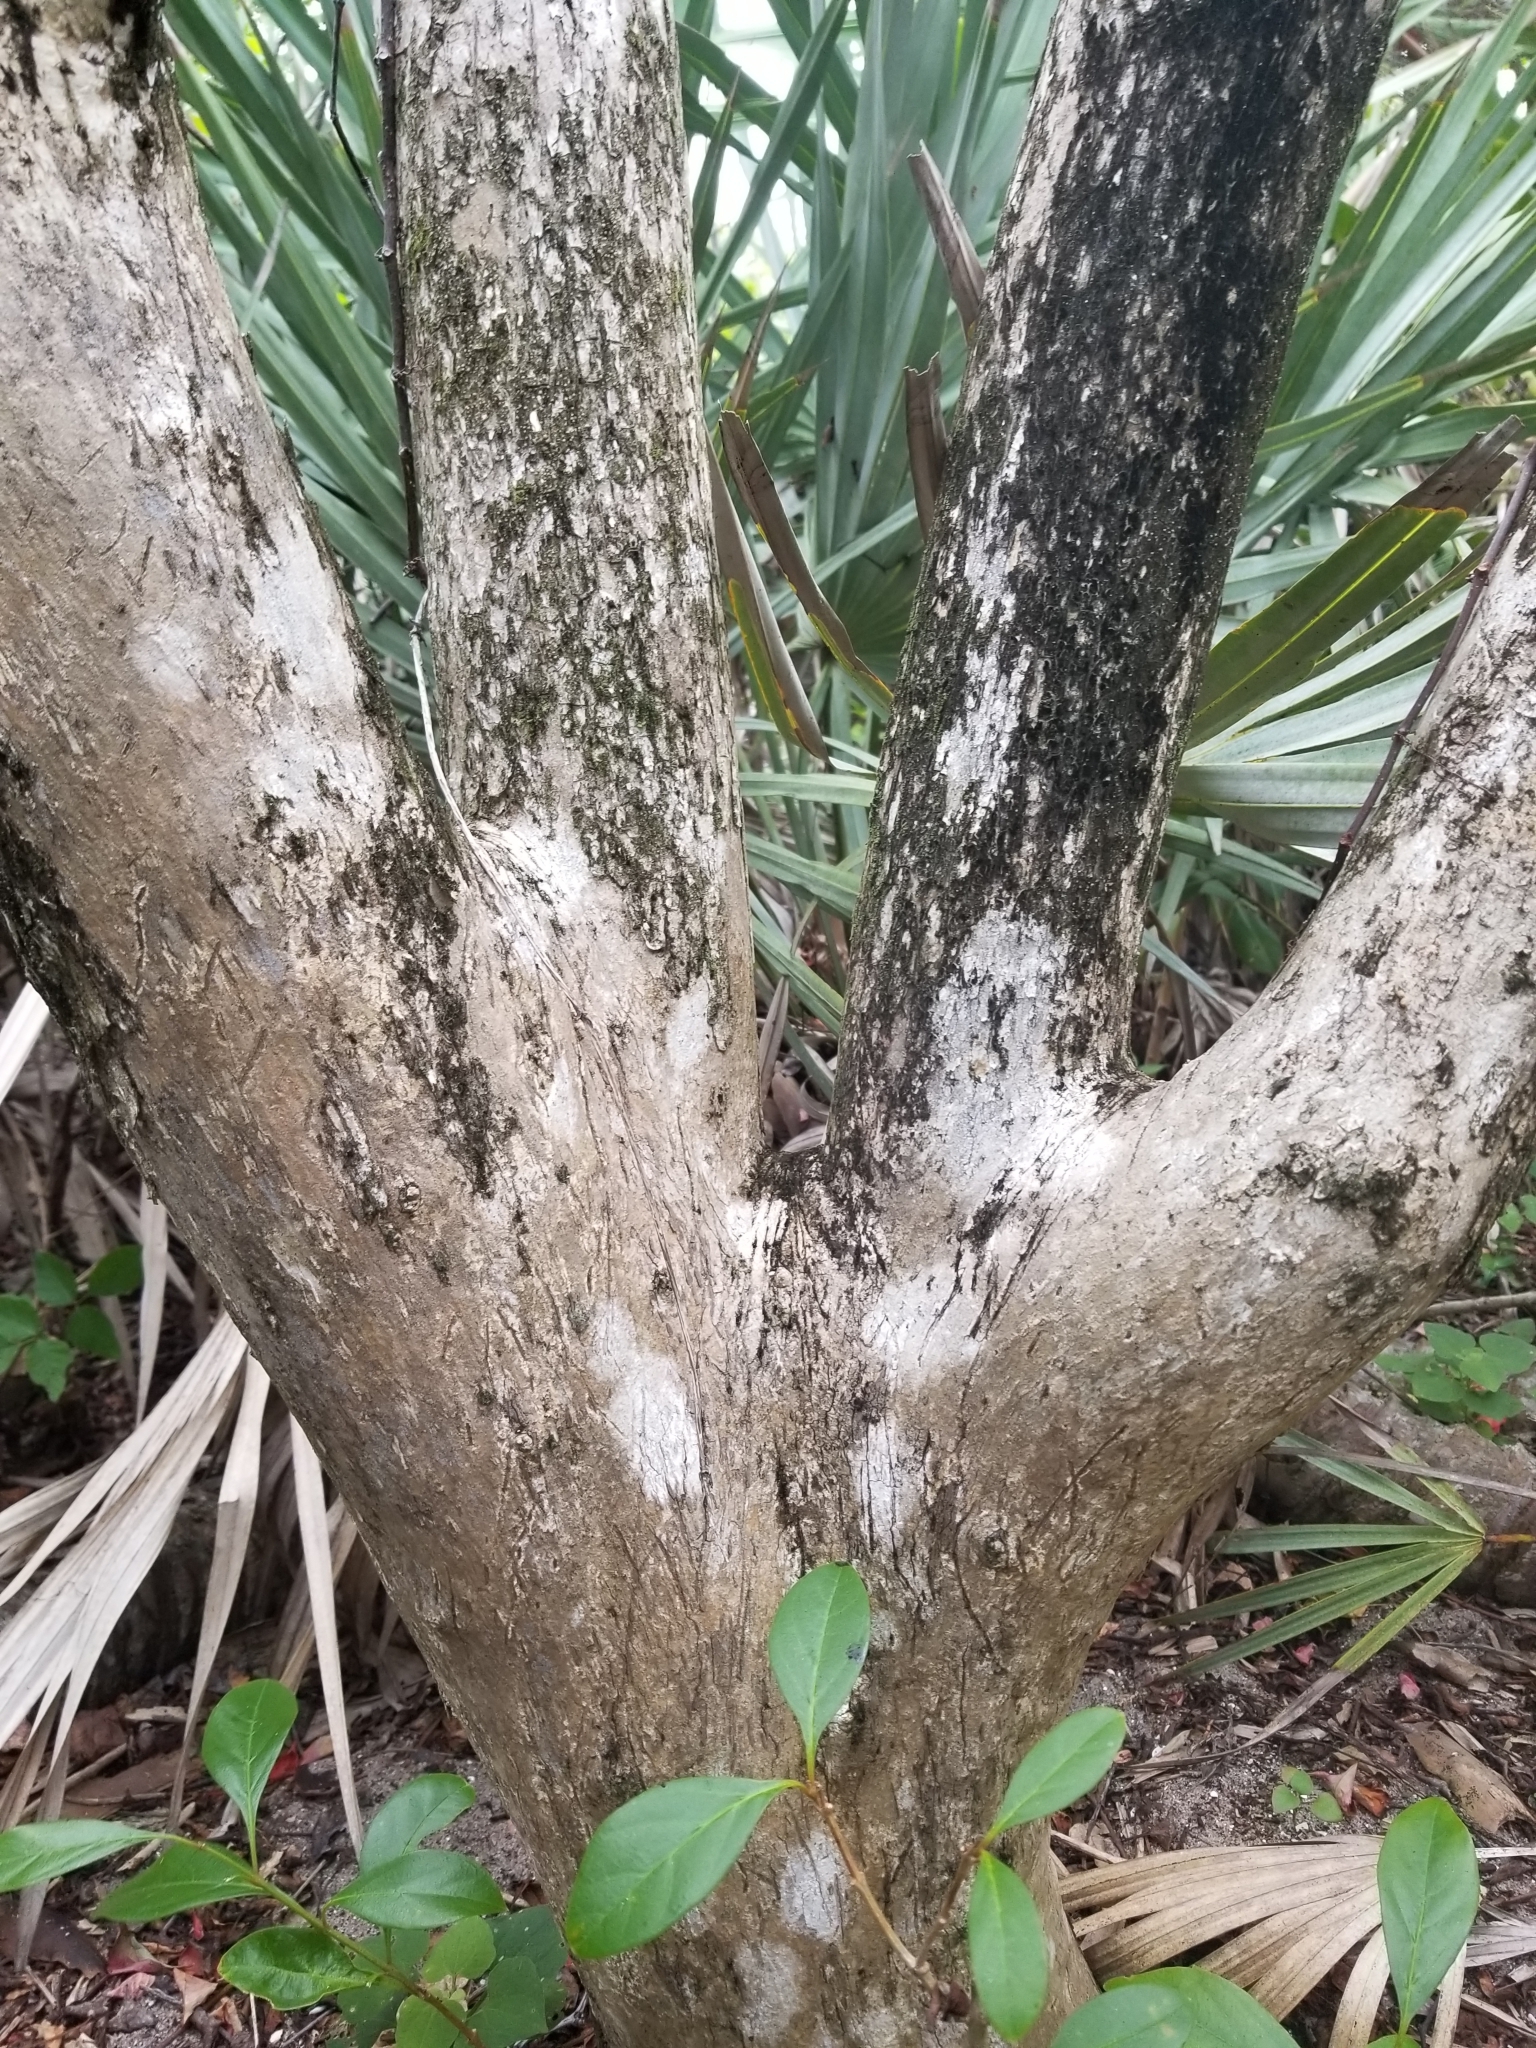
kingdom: Plantae
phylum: Tracheophyta
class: Magnoliopsida
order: Lamiales
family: Verbenaceae
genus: Citharexylum
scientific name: Citharexylum spinosum
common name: Fiddlewood
